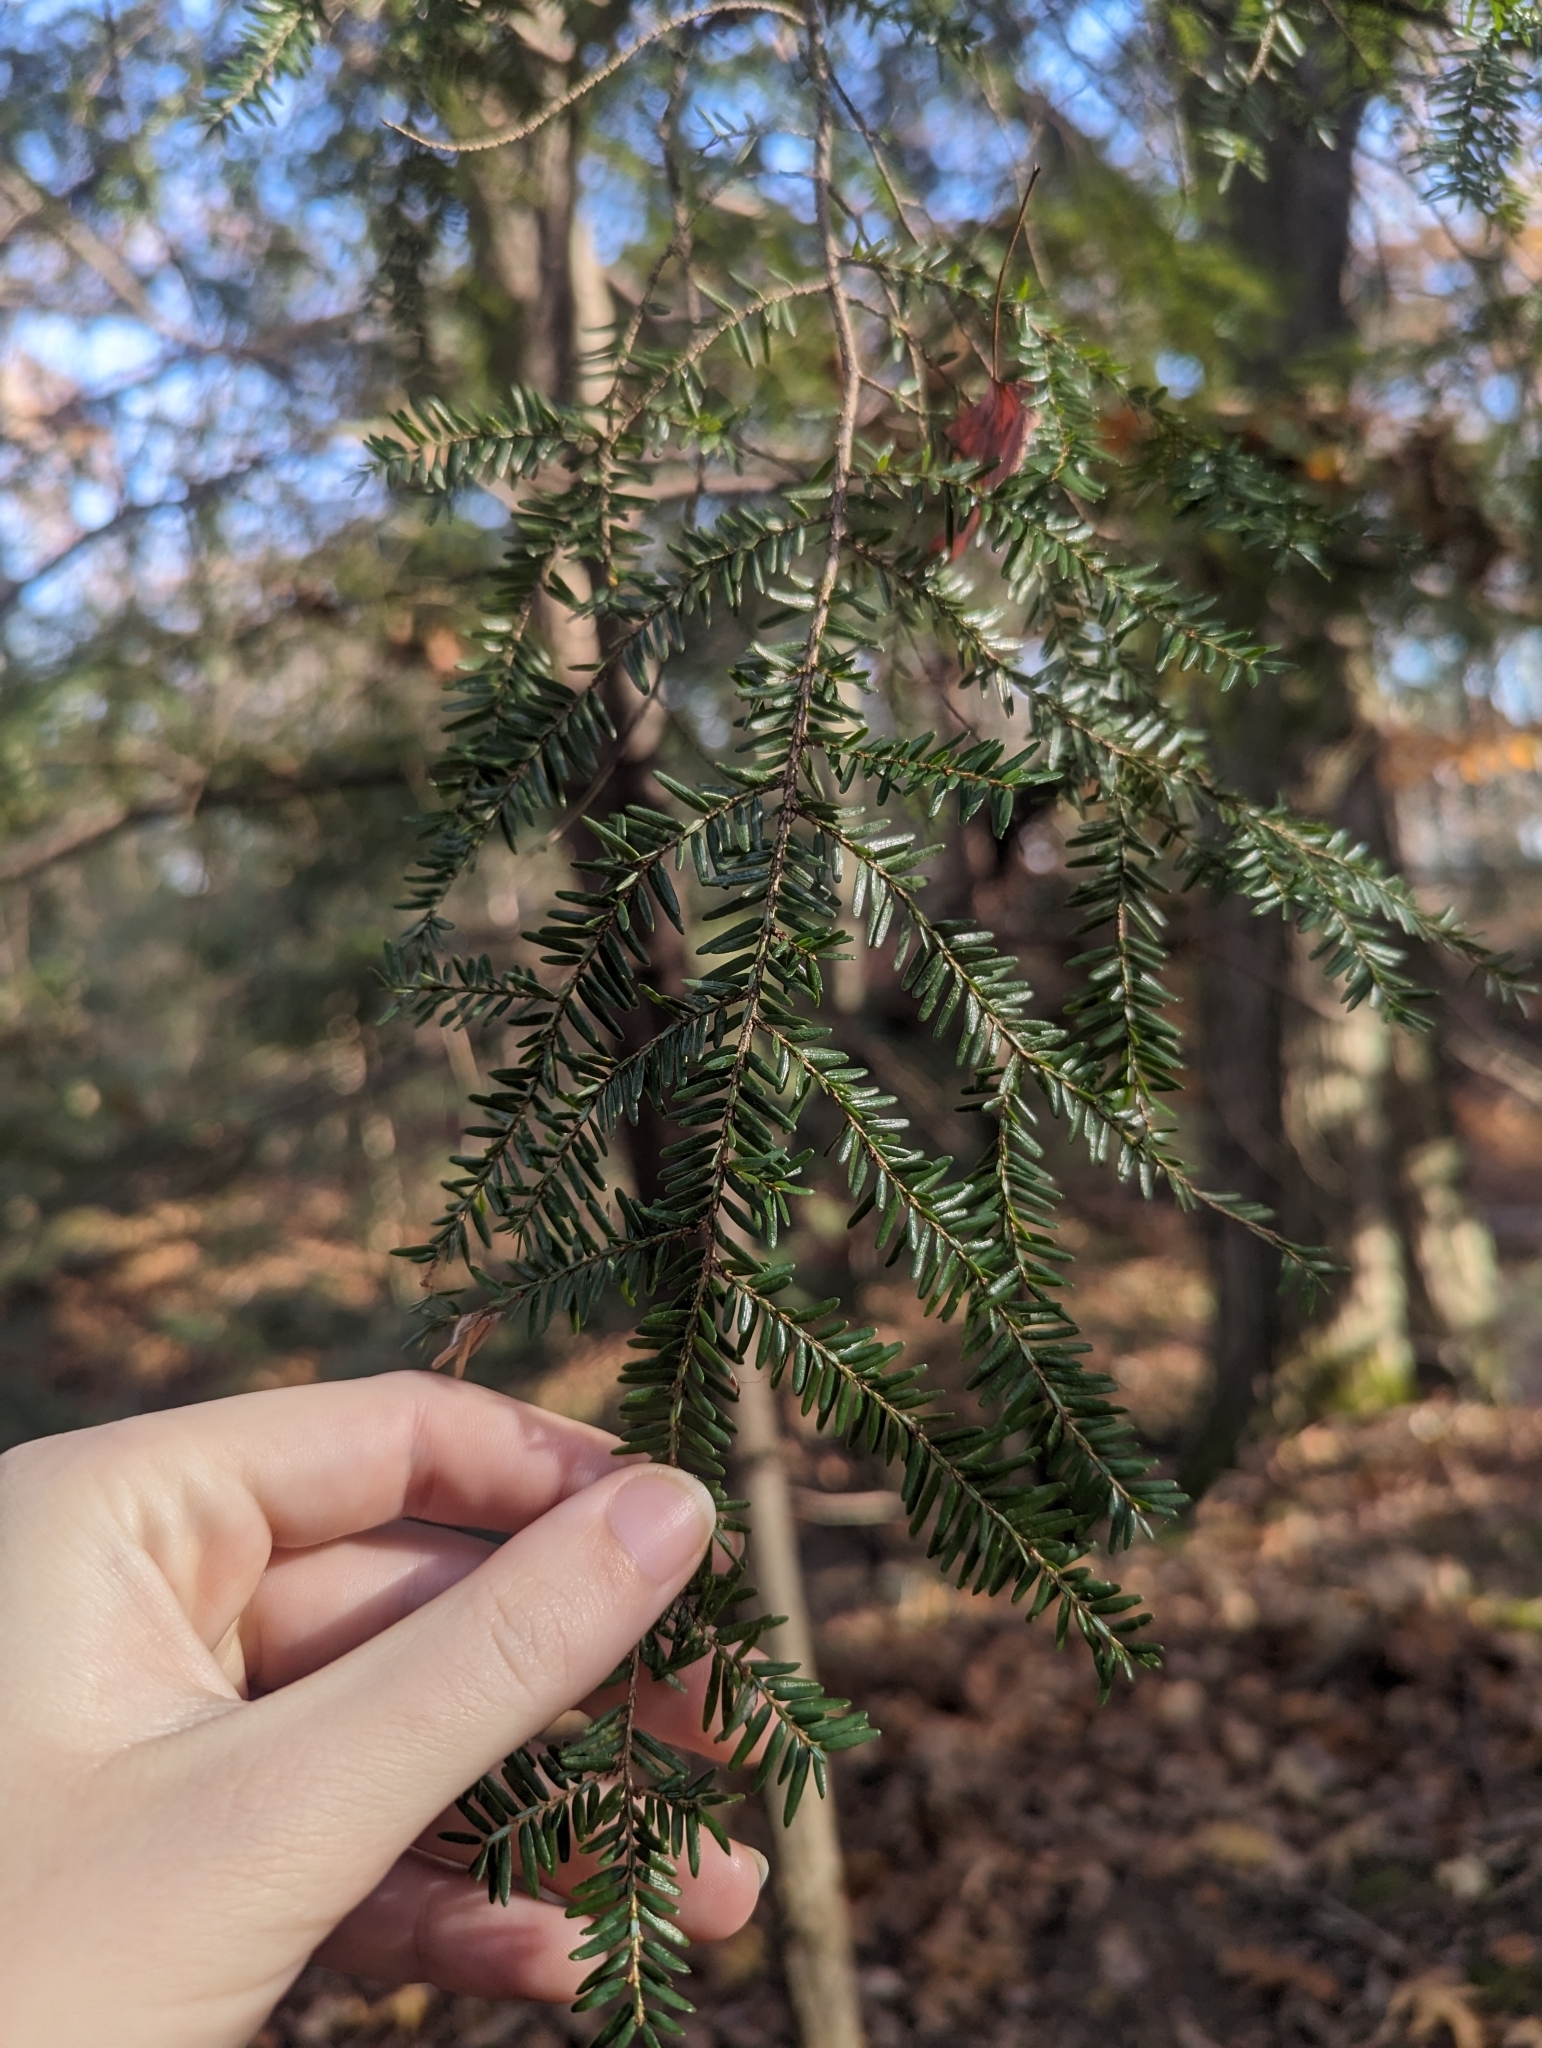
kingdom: Plantae
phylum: Tracheophyta
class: Pinopsida
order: Pinales
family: Pinaceae
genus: Tsuga
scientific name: Tsuga canadensis
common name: Eastern hemlock
